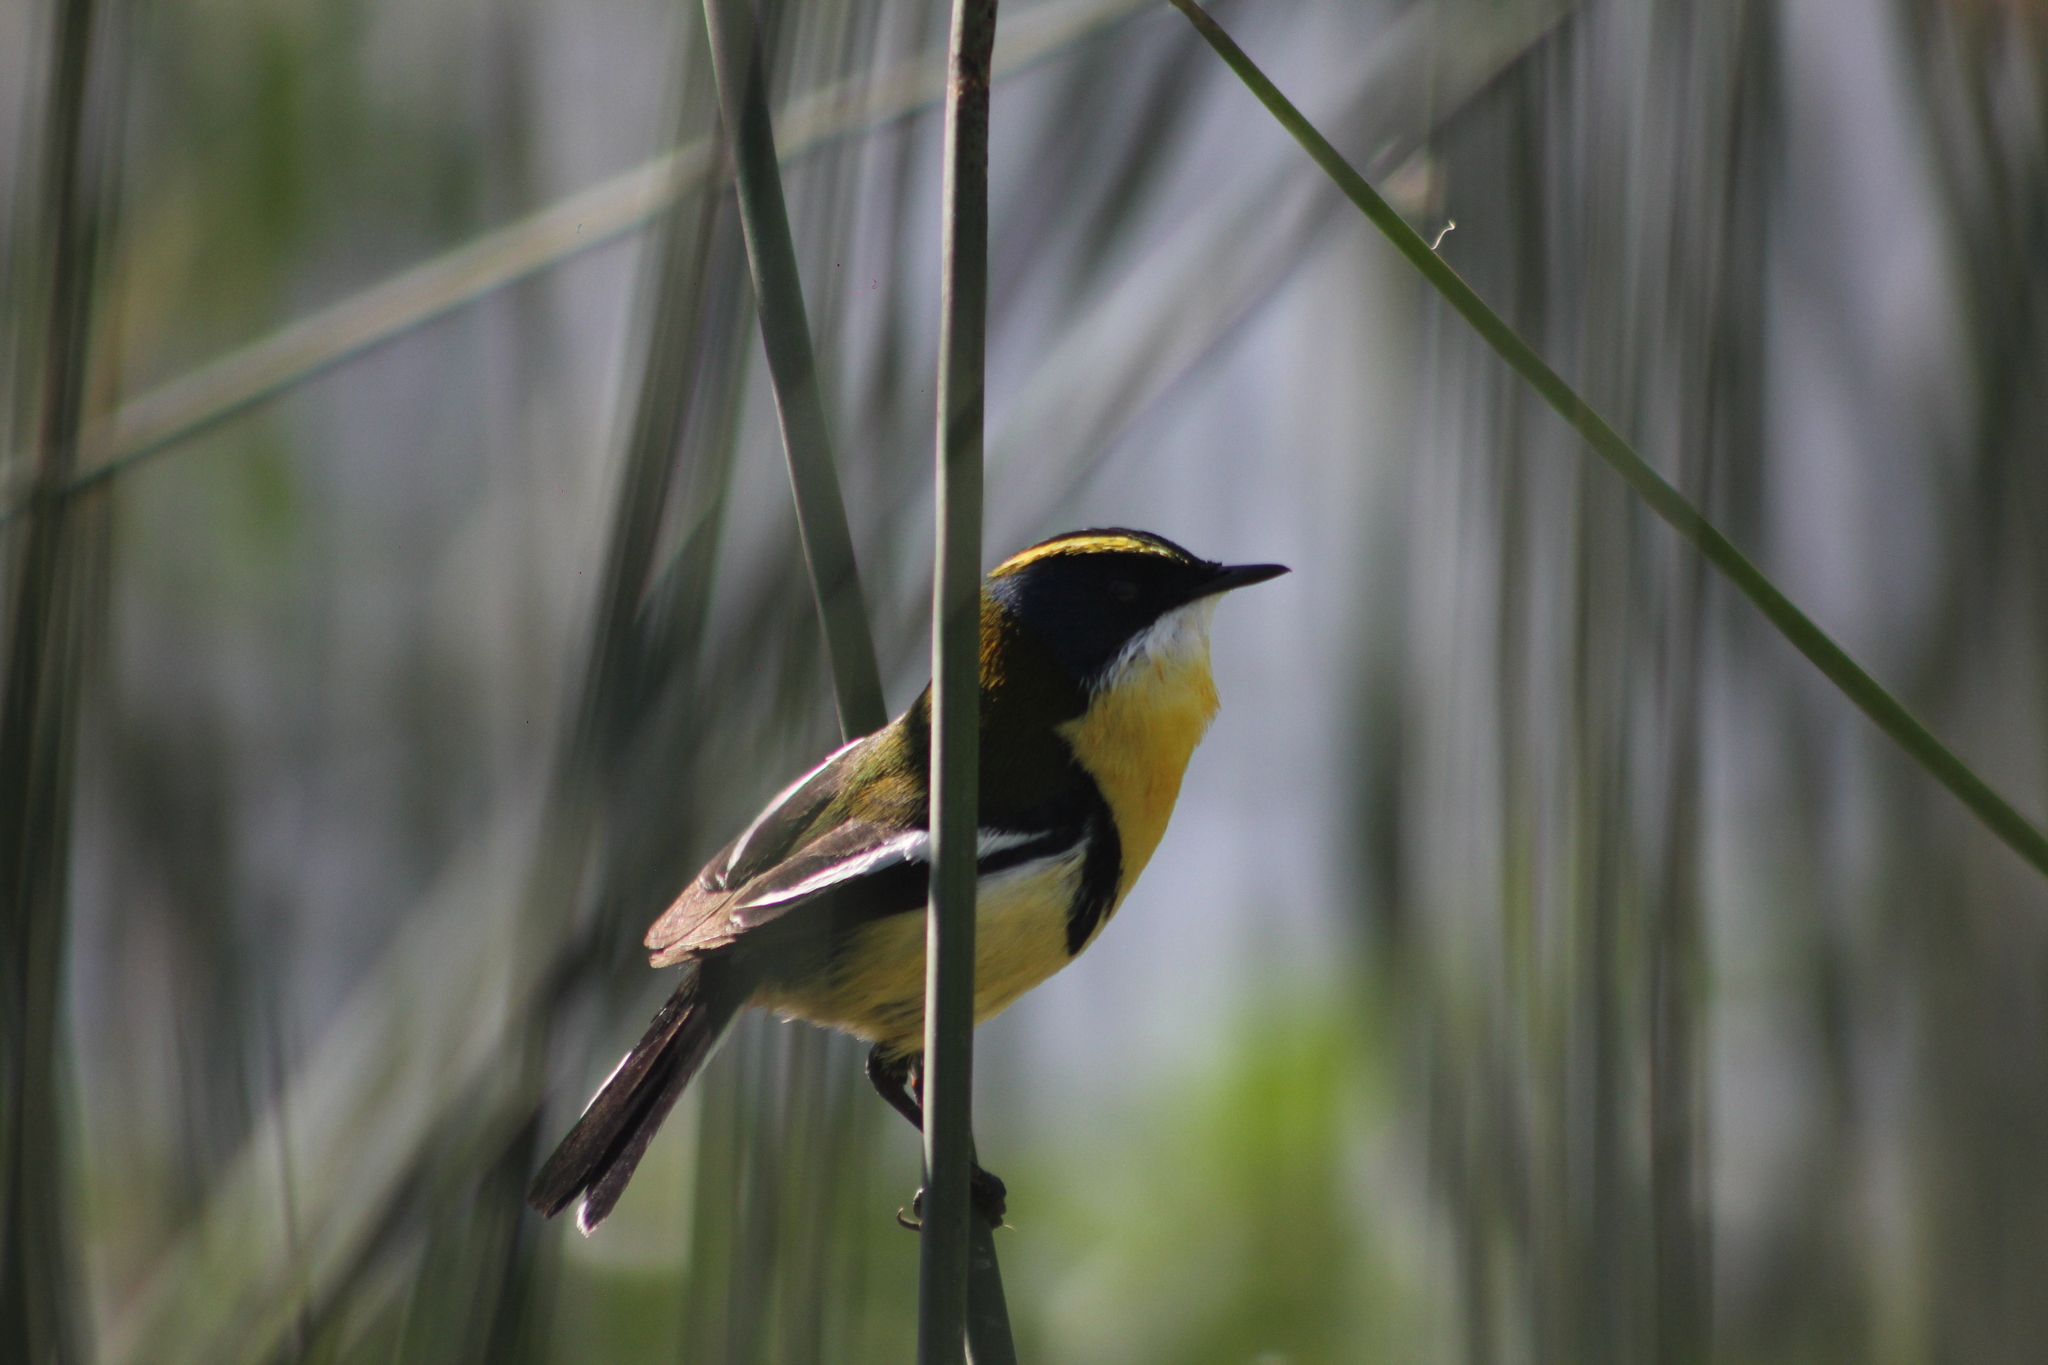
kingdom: Animalia
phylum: Chordata
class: Aves
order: Passeriformes
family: Tyrannidae
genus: Tachuris
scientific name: Tachuris rubrigastra
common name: Many-colored rush tyrant
